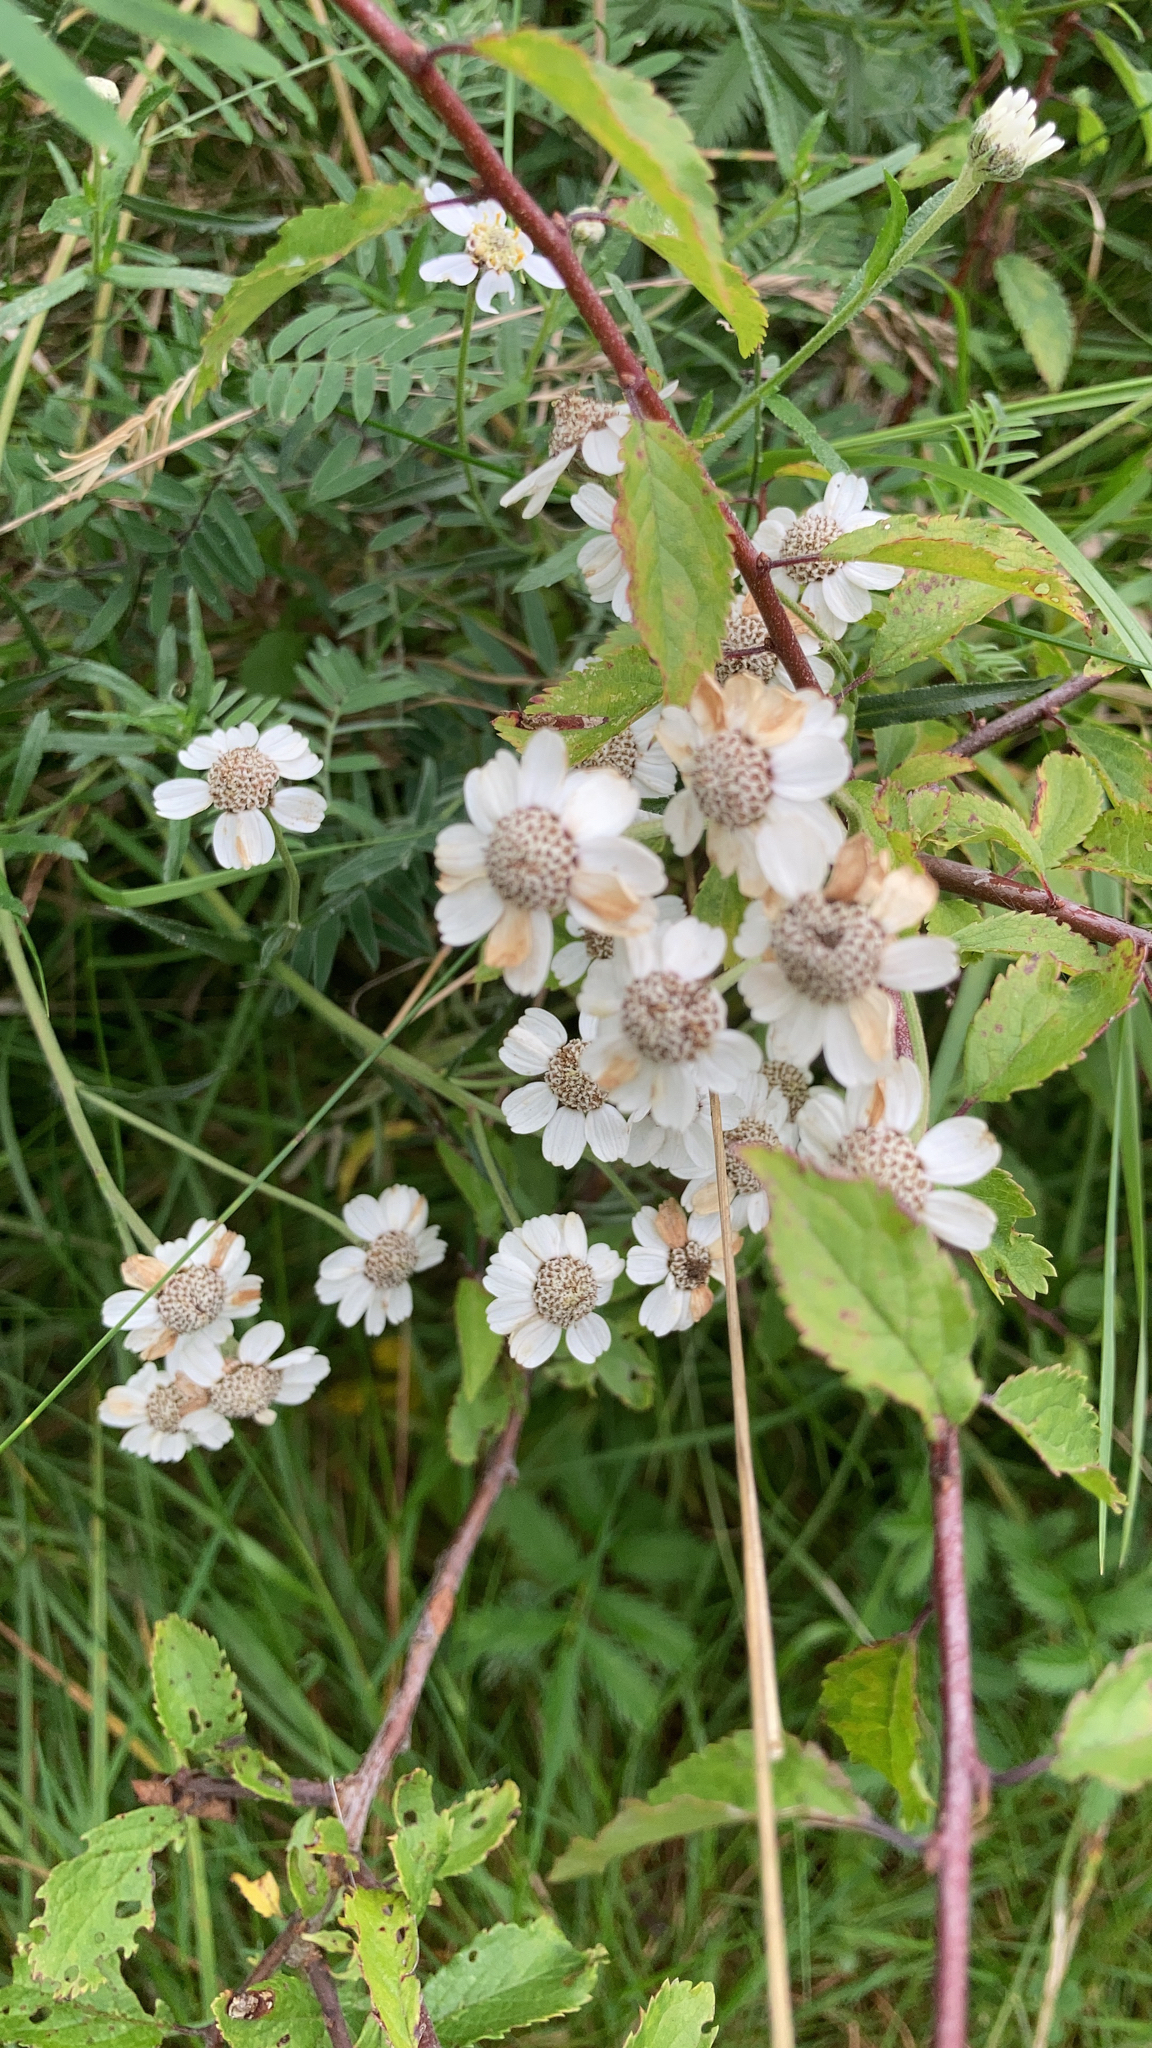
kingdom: Plantae
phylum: Tracheophyta
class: Magnoliopsida
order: Asterales
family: Asteraceae
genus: Achillea
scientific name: Achillea ptarmica
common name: Sneezeweed
